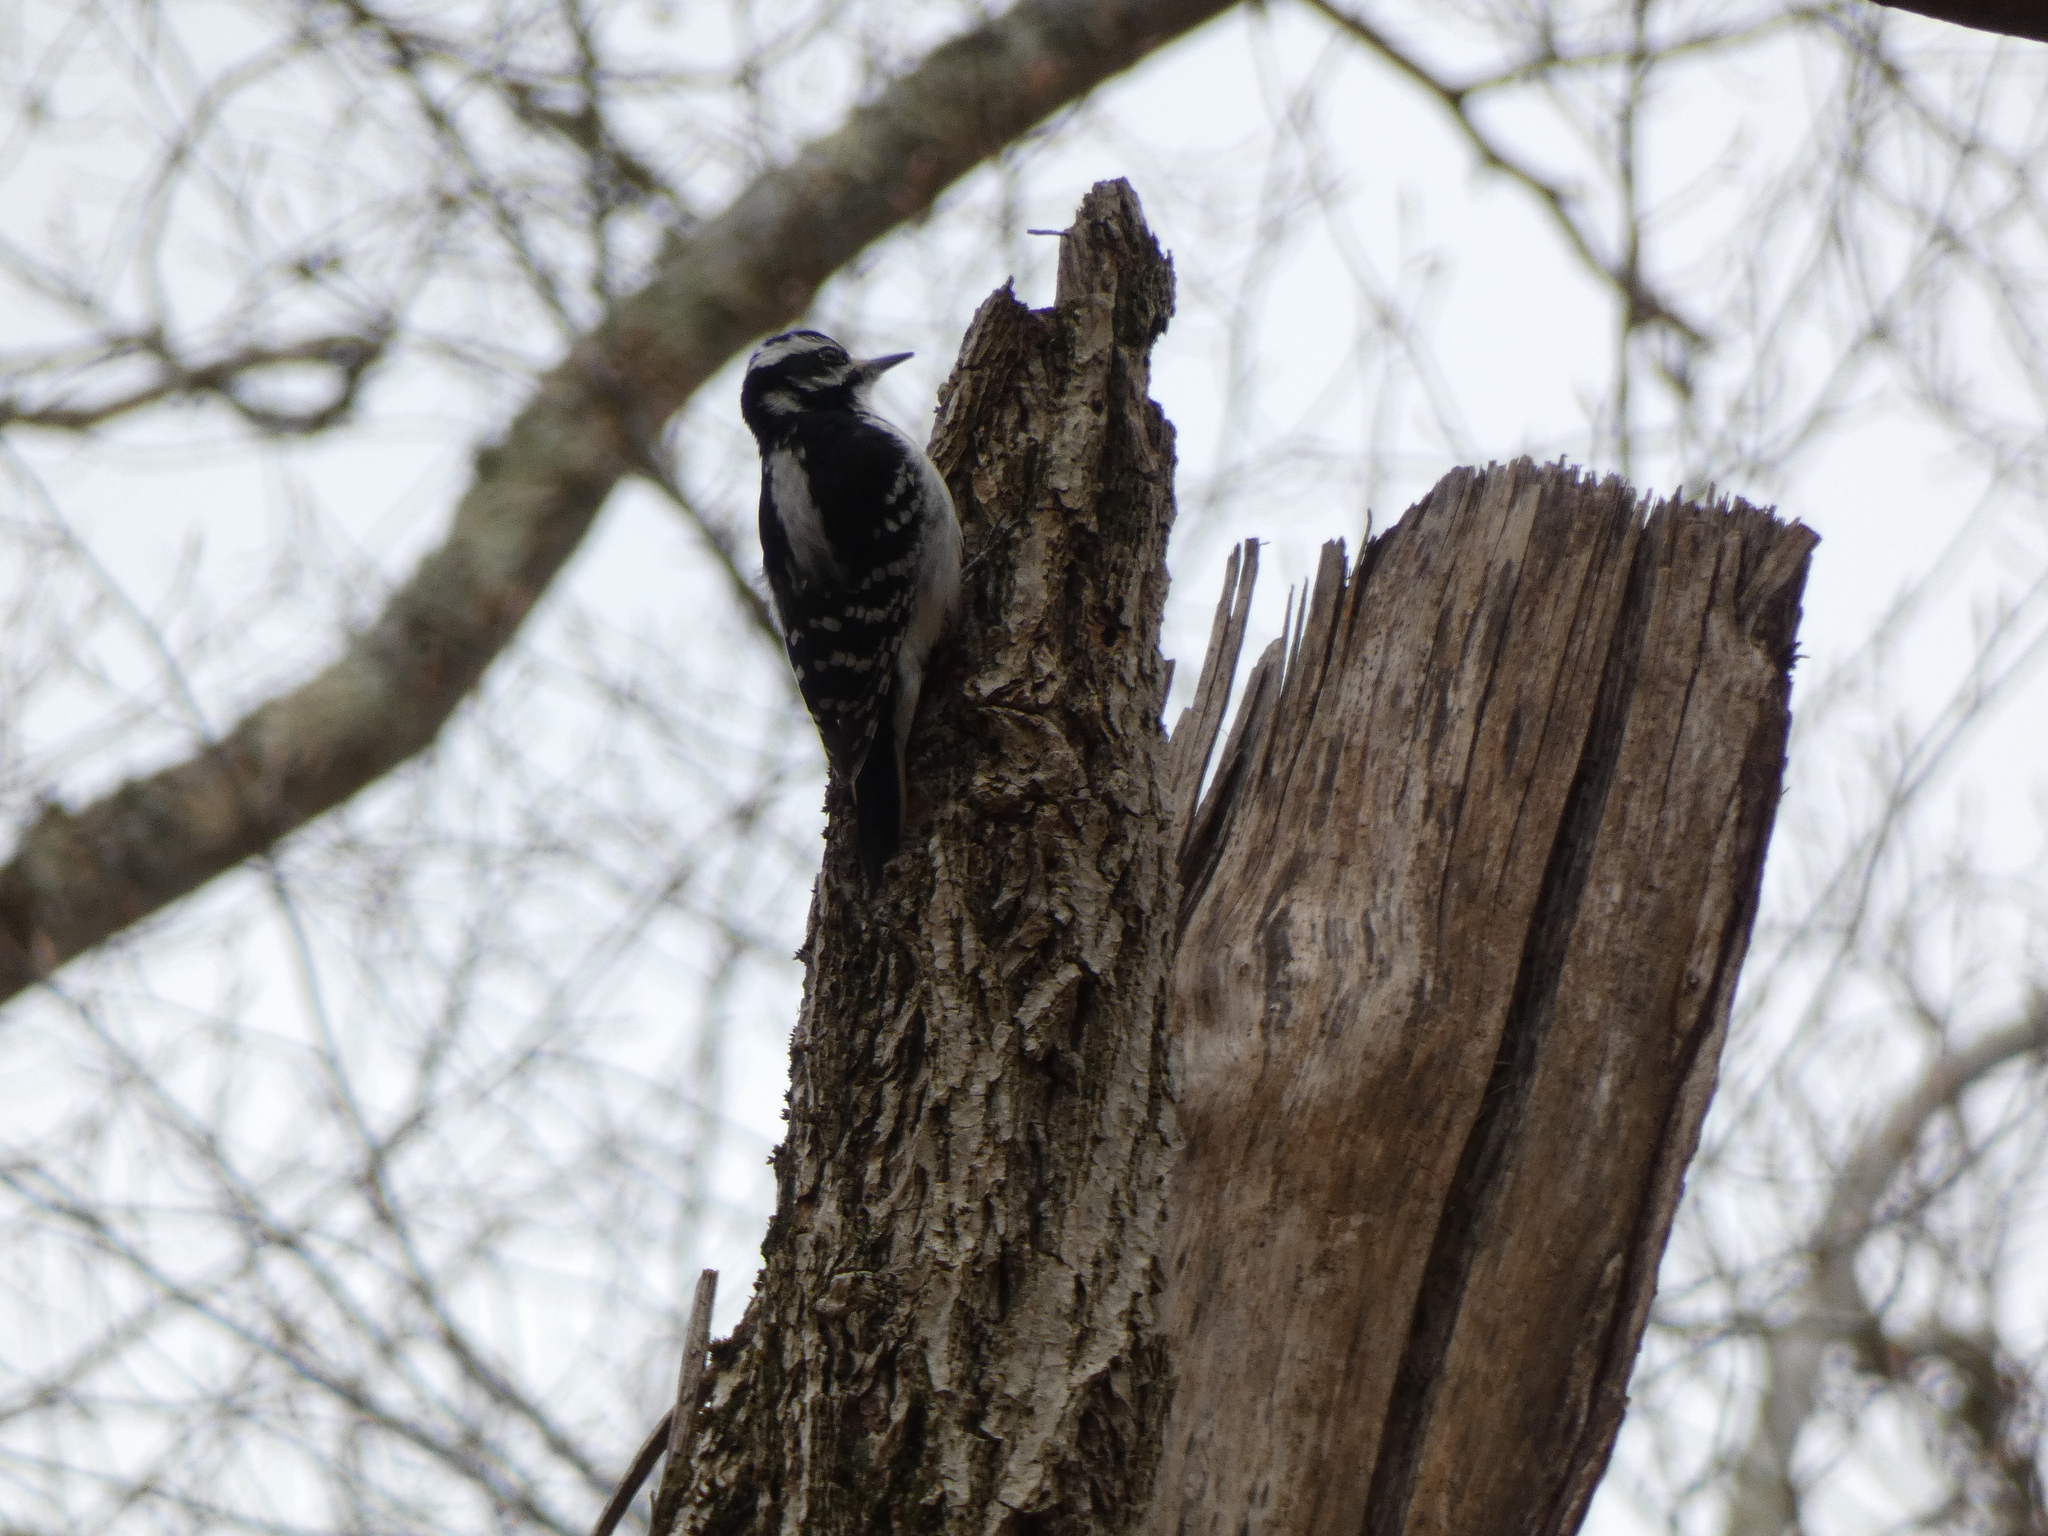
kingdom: Animalia
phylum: Chordata
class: Aves
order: Piciformes
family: Picidae
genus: Leuconotopicus
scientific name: Leuconotopicus villosus
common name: Hairy woodpecker
